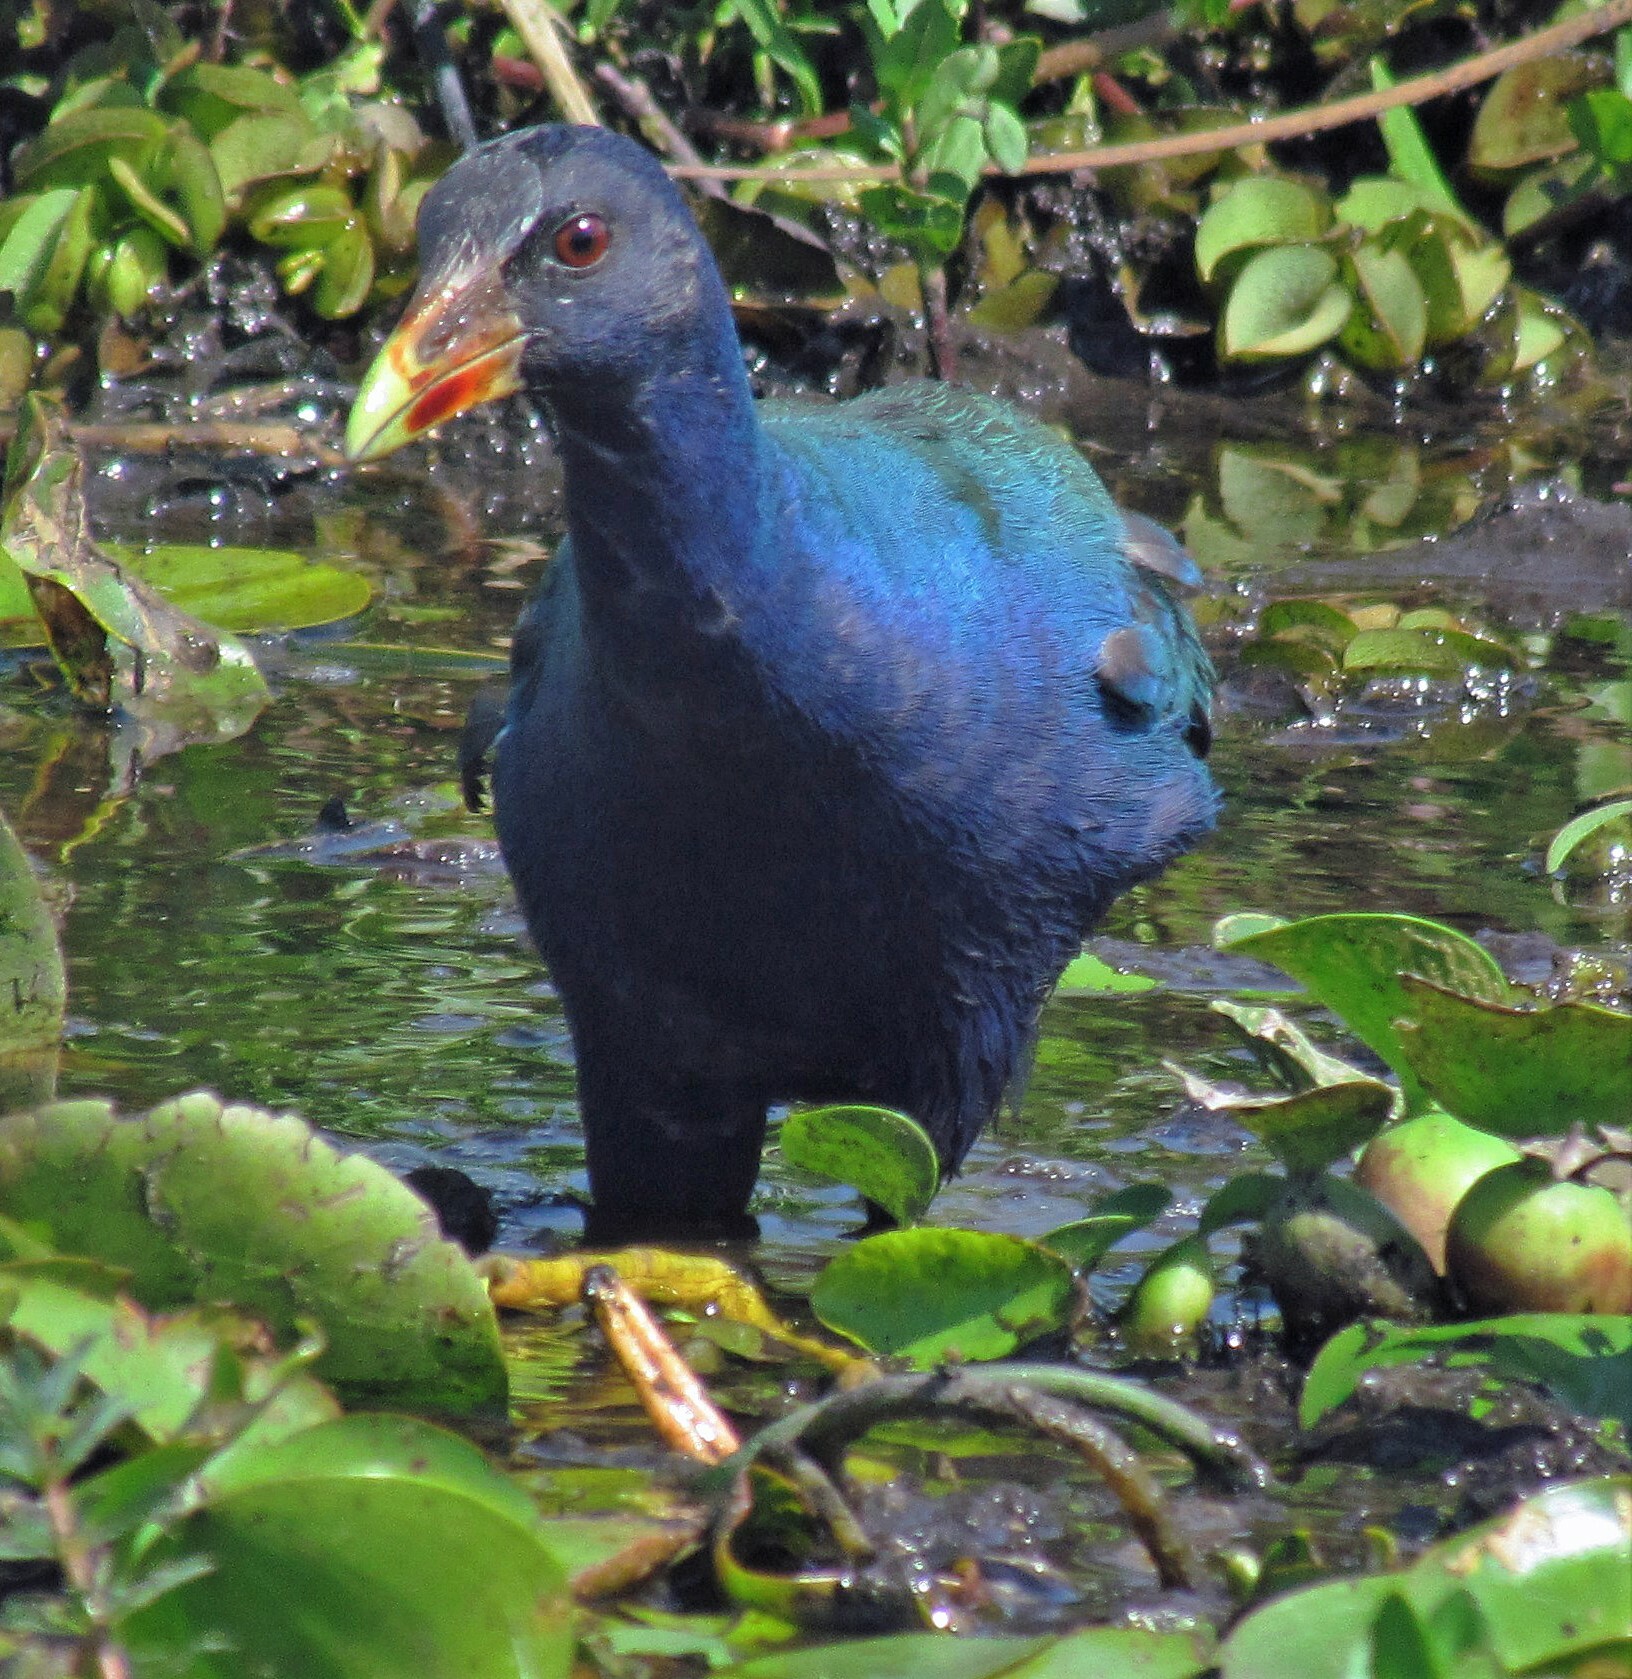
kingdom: Animalia
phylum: Chordata
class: Aves
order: Gruiformes
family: Rallidae
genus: Porphyrio
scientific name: Porphyrio martinica
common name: Purple gallinule
